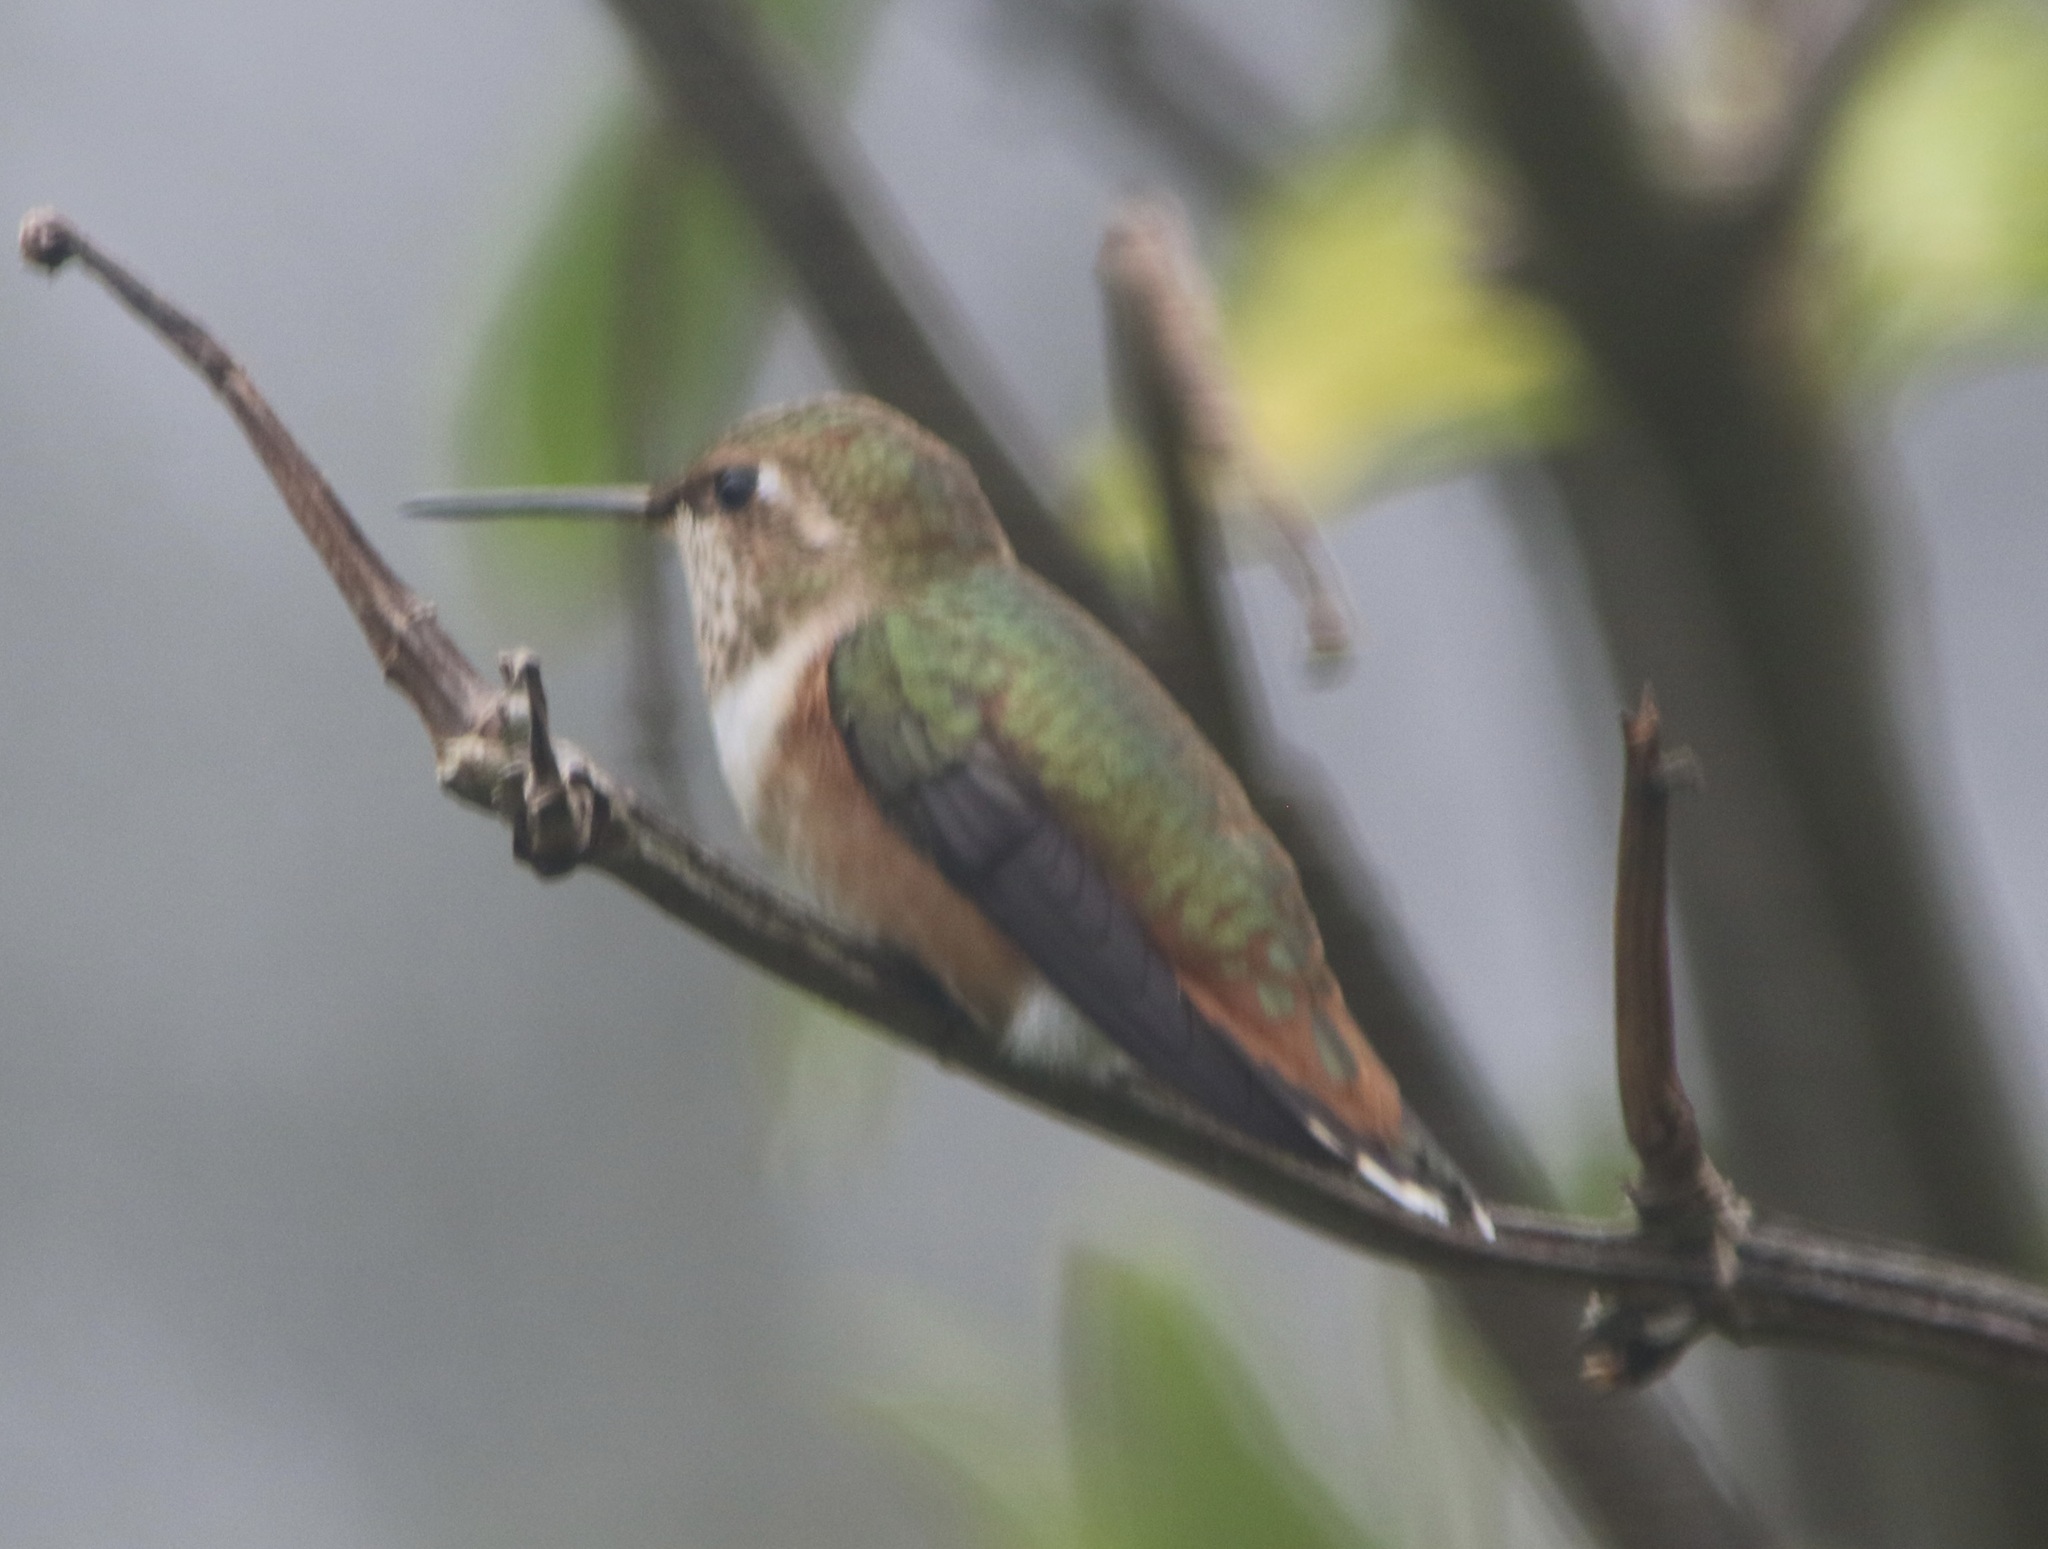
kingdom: Animalia
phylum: Chordata
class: Aves
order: Apodiformes
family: Trochilidae
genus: Selasphorus
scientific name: Selasphorus
